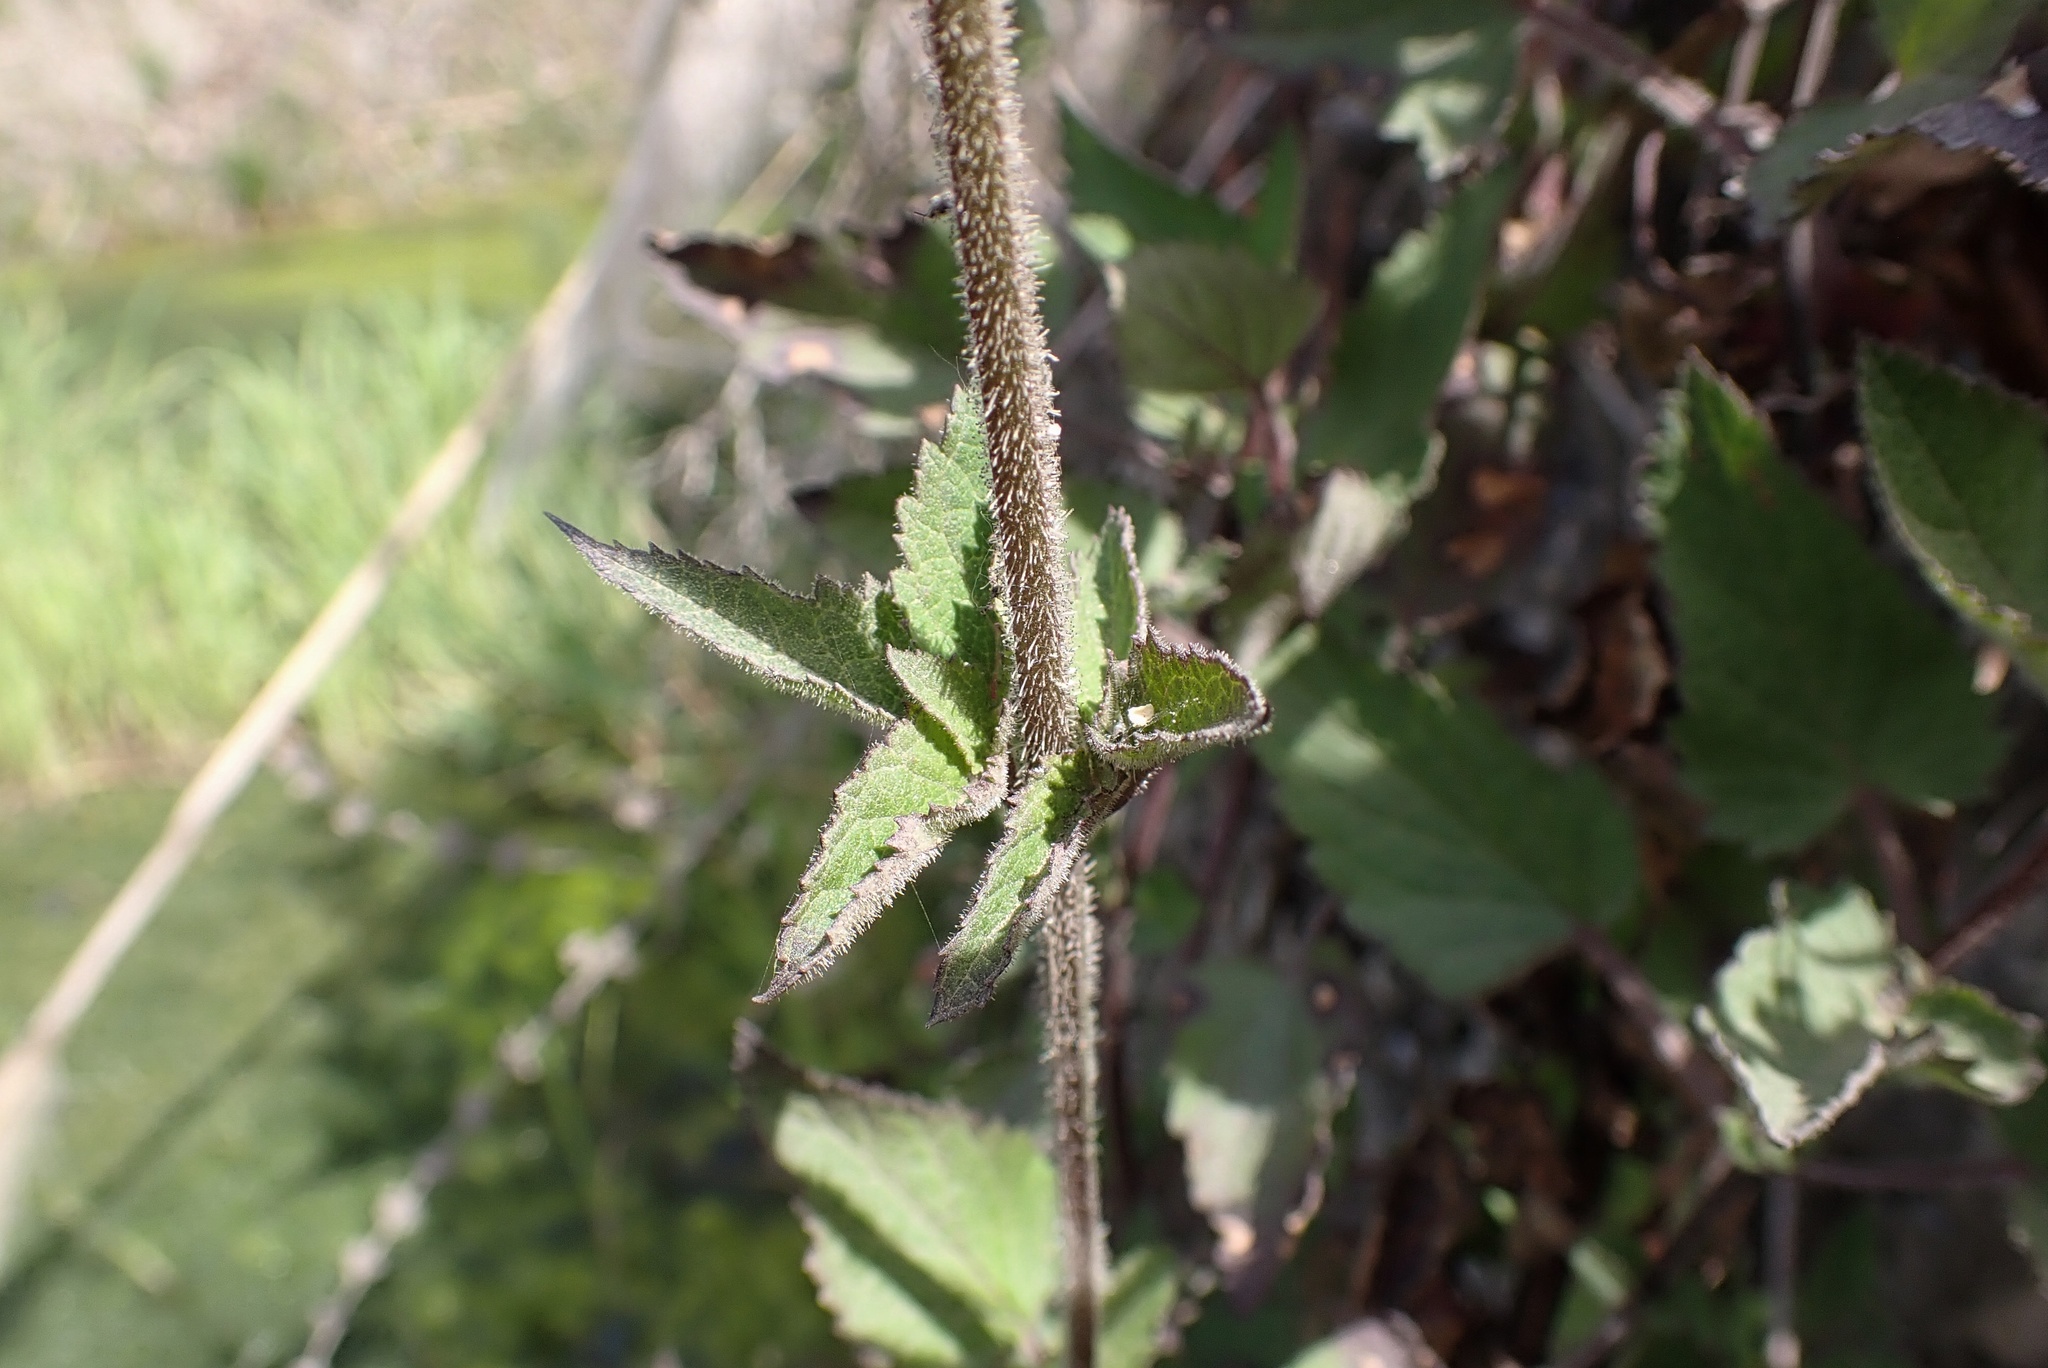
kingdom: Plantae
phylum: Tracheophyta
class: Magnoliopsida
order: Lamiales
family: Scrophulariaceae
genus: Scrophularia
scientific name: Scrophularia californica
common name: California figwort
